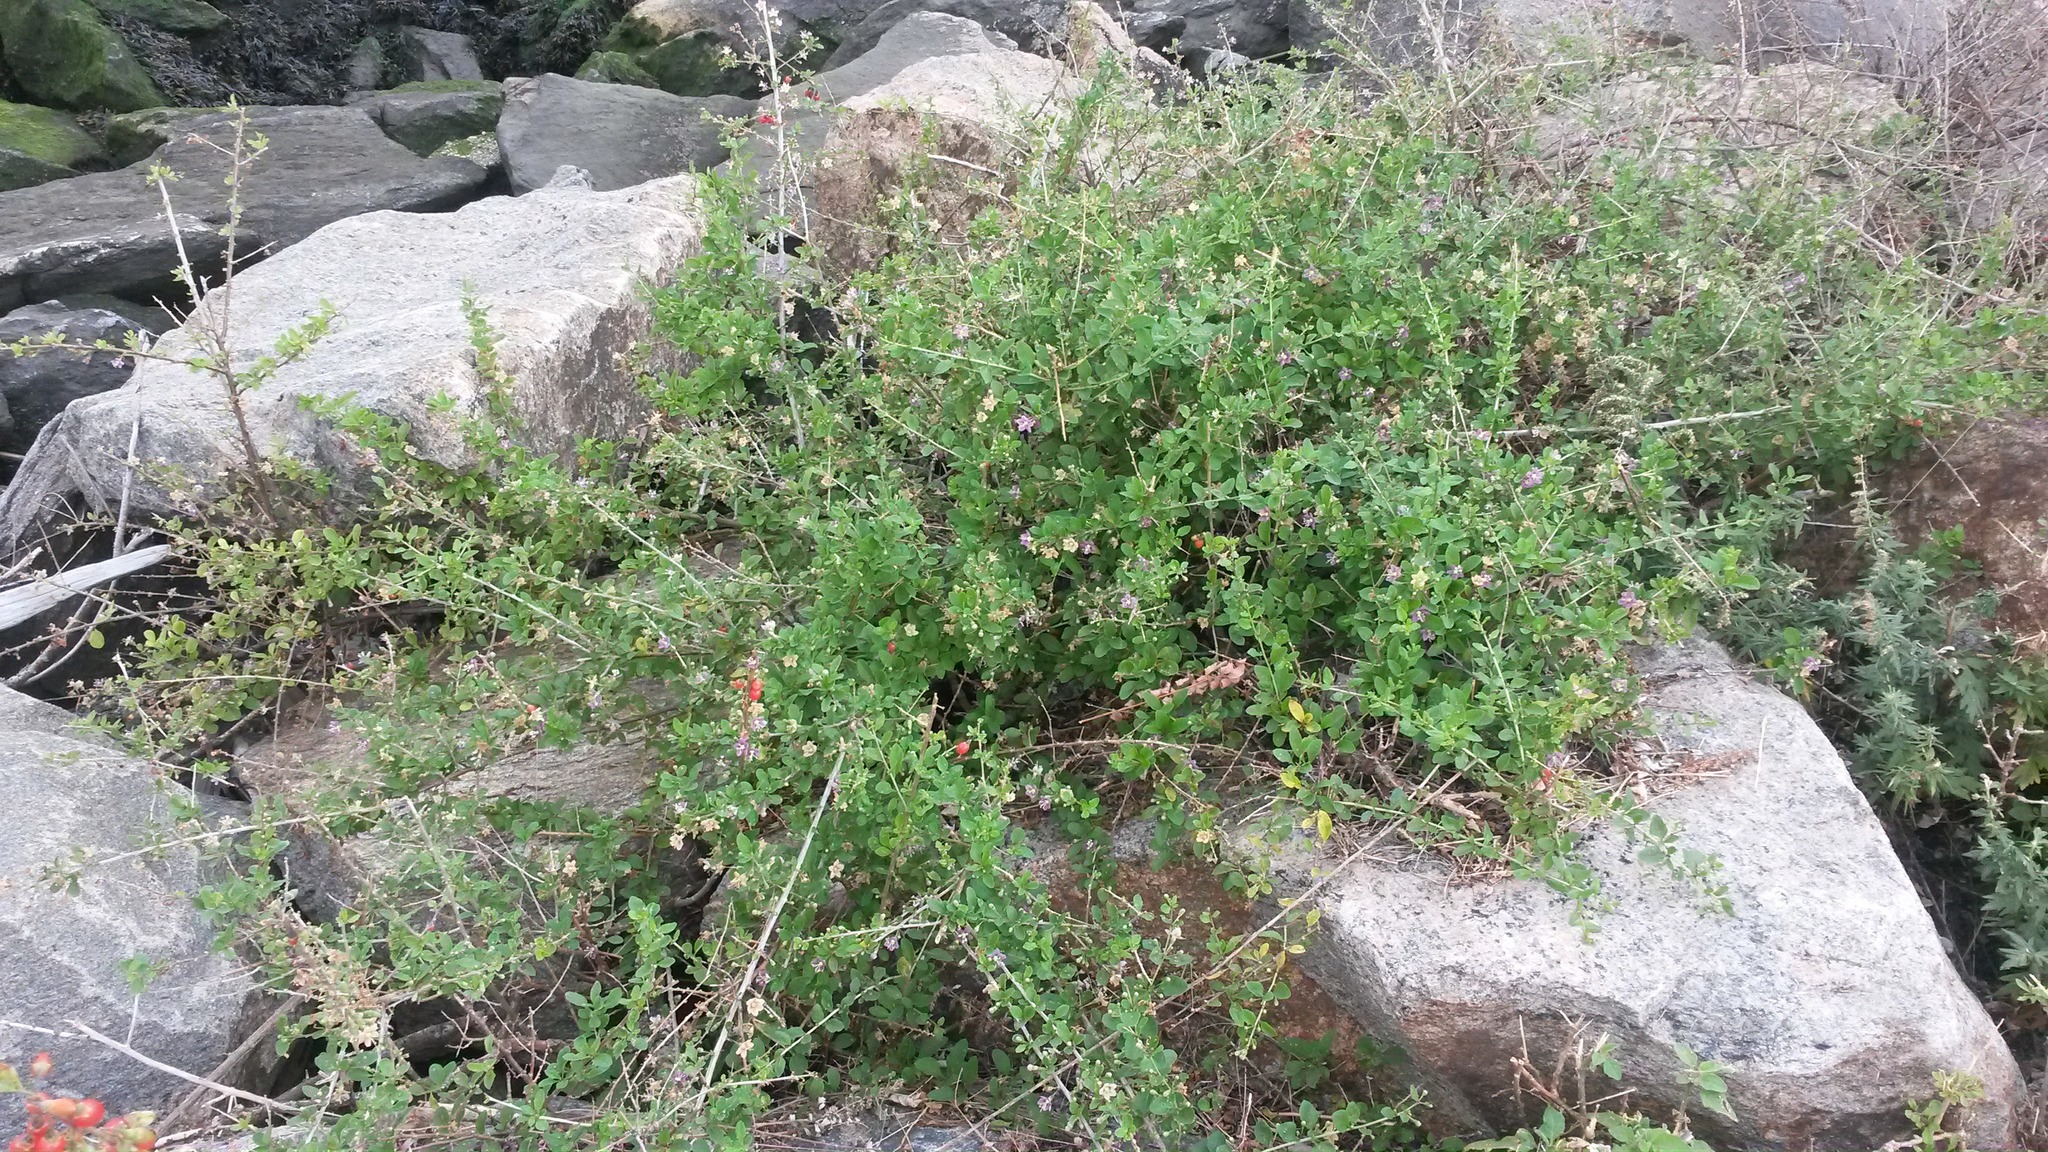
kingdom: Plantae
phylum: Tracheophyta
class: Magnoliopsida
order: Solanales
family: Solanaceae
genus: Lycium
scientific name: Lycium barbarum
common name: Duke of argyll's teaplant
